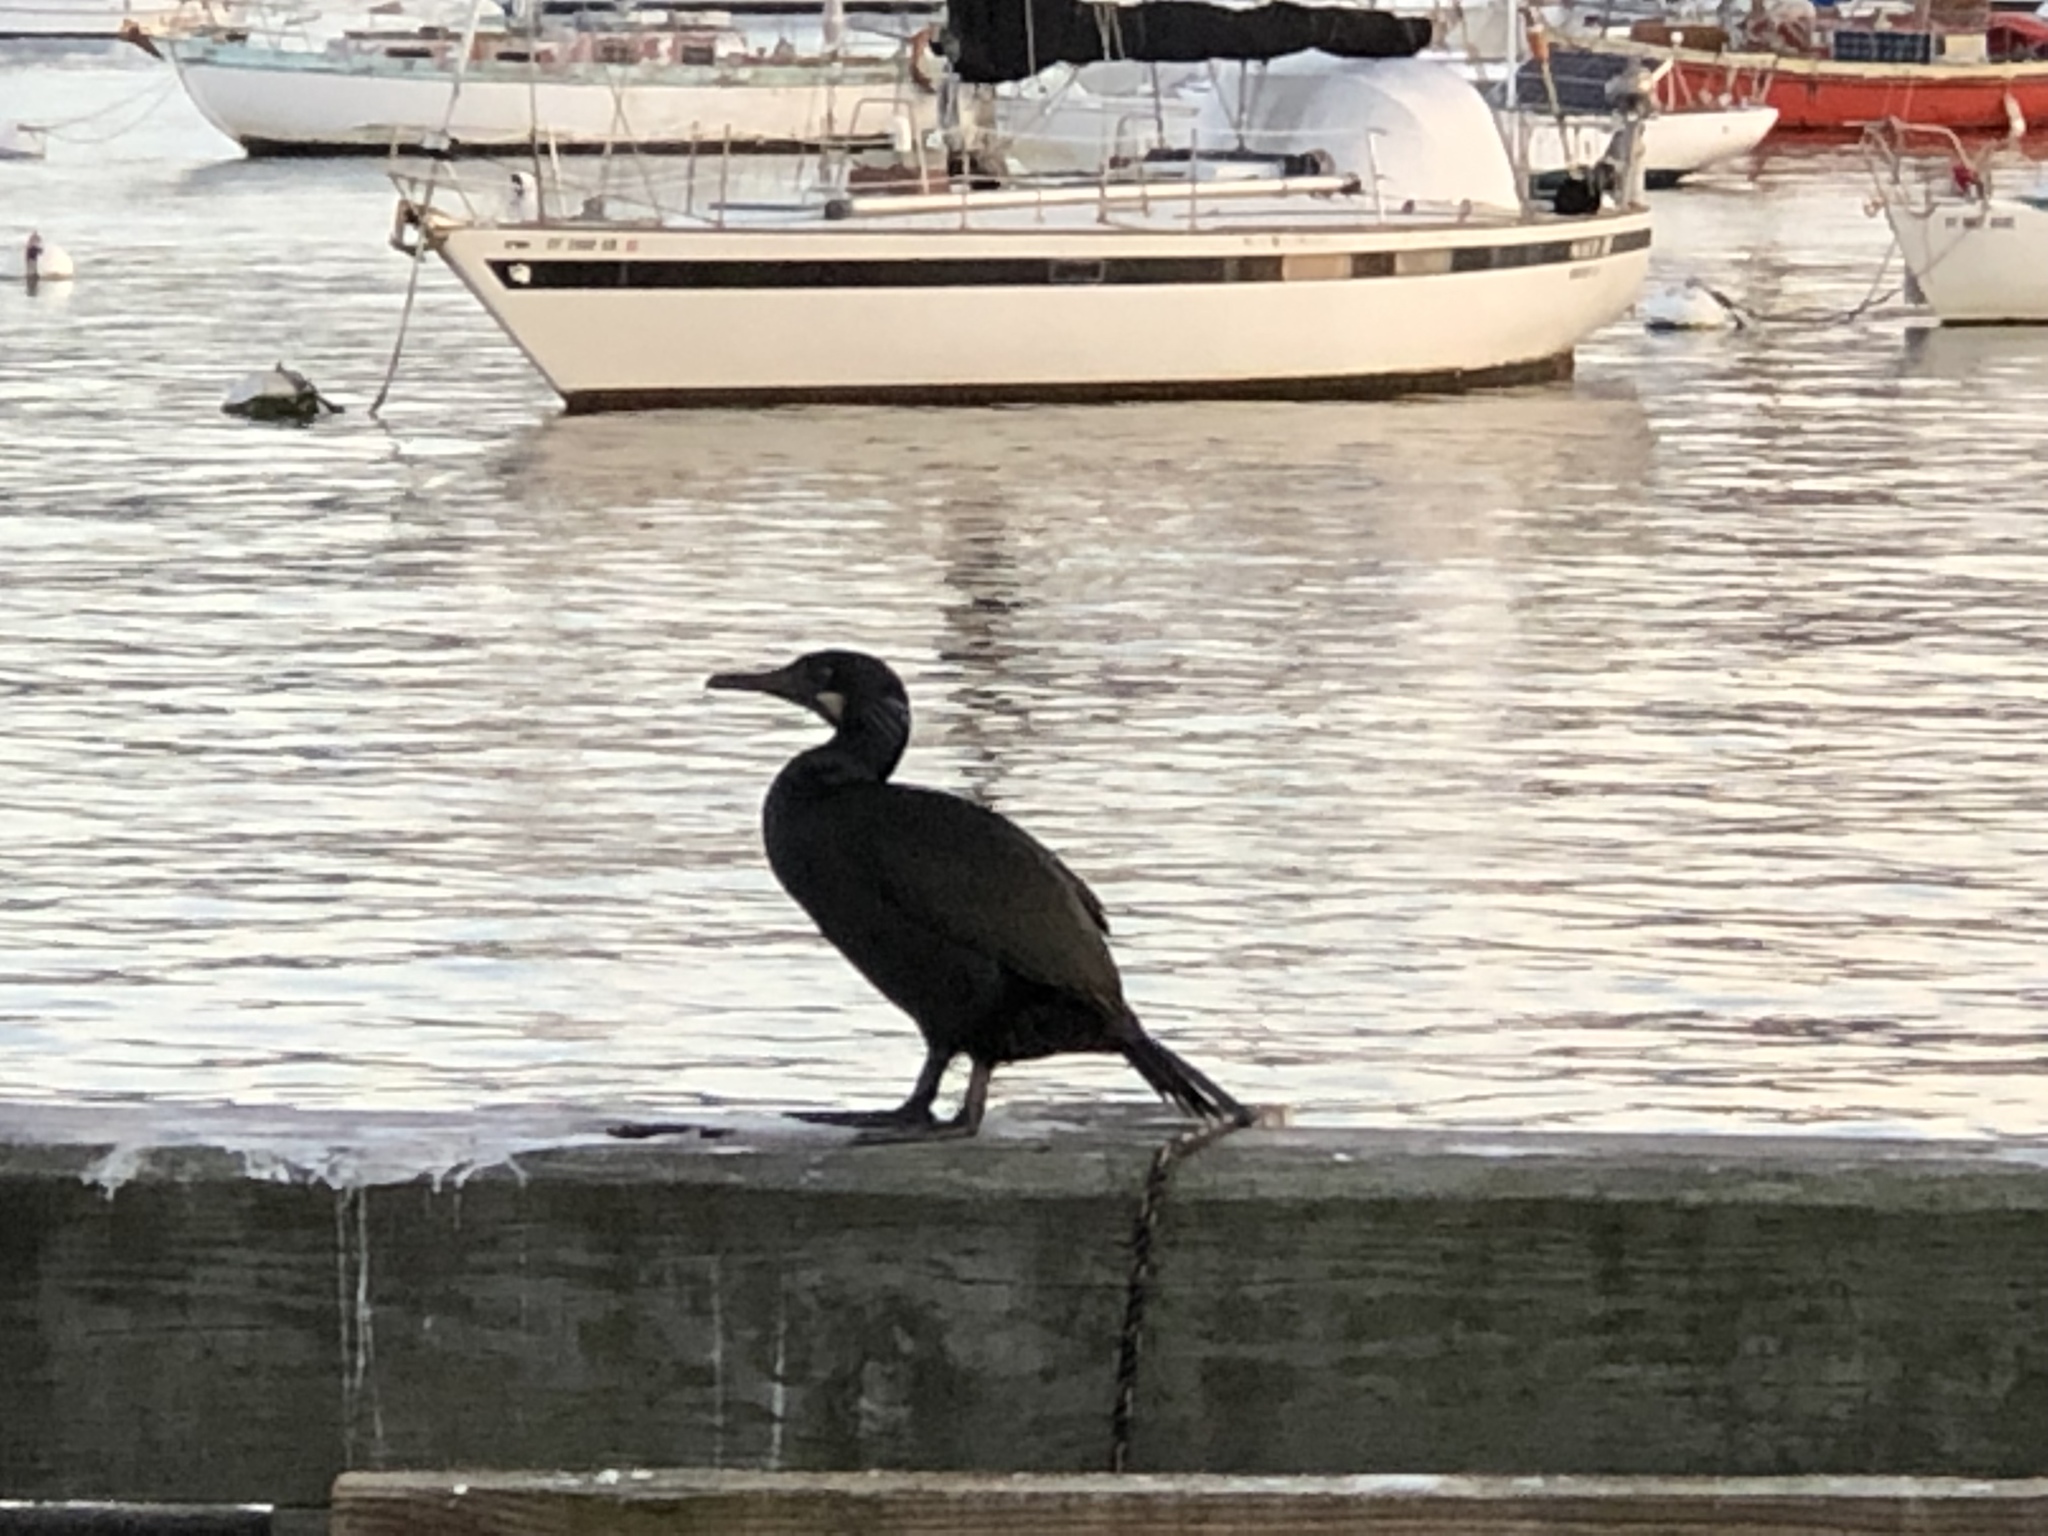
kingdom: Animalia
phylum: Chordata
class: Aves
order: Suliformes
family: Phalacrocoracidae
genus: Urile
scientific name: Urile penicillatus
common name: Brandt's cormorant
